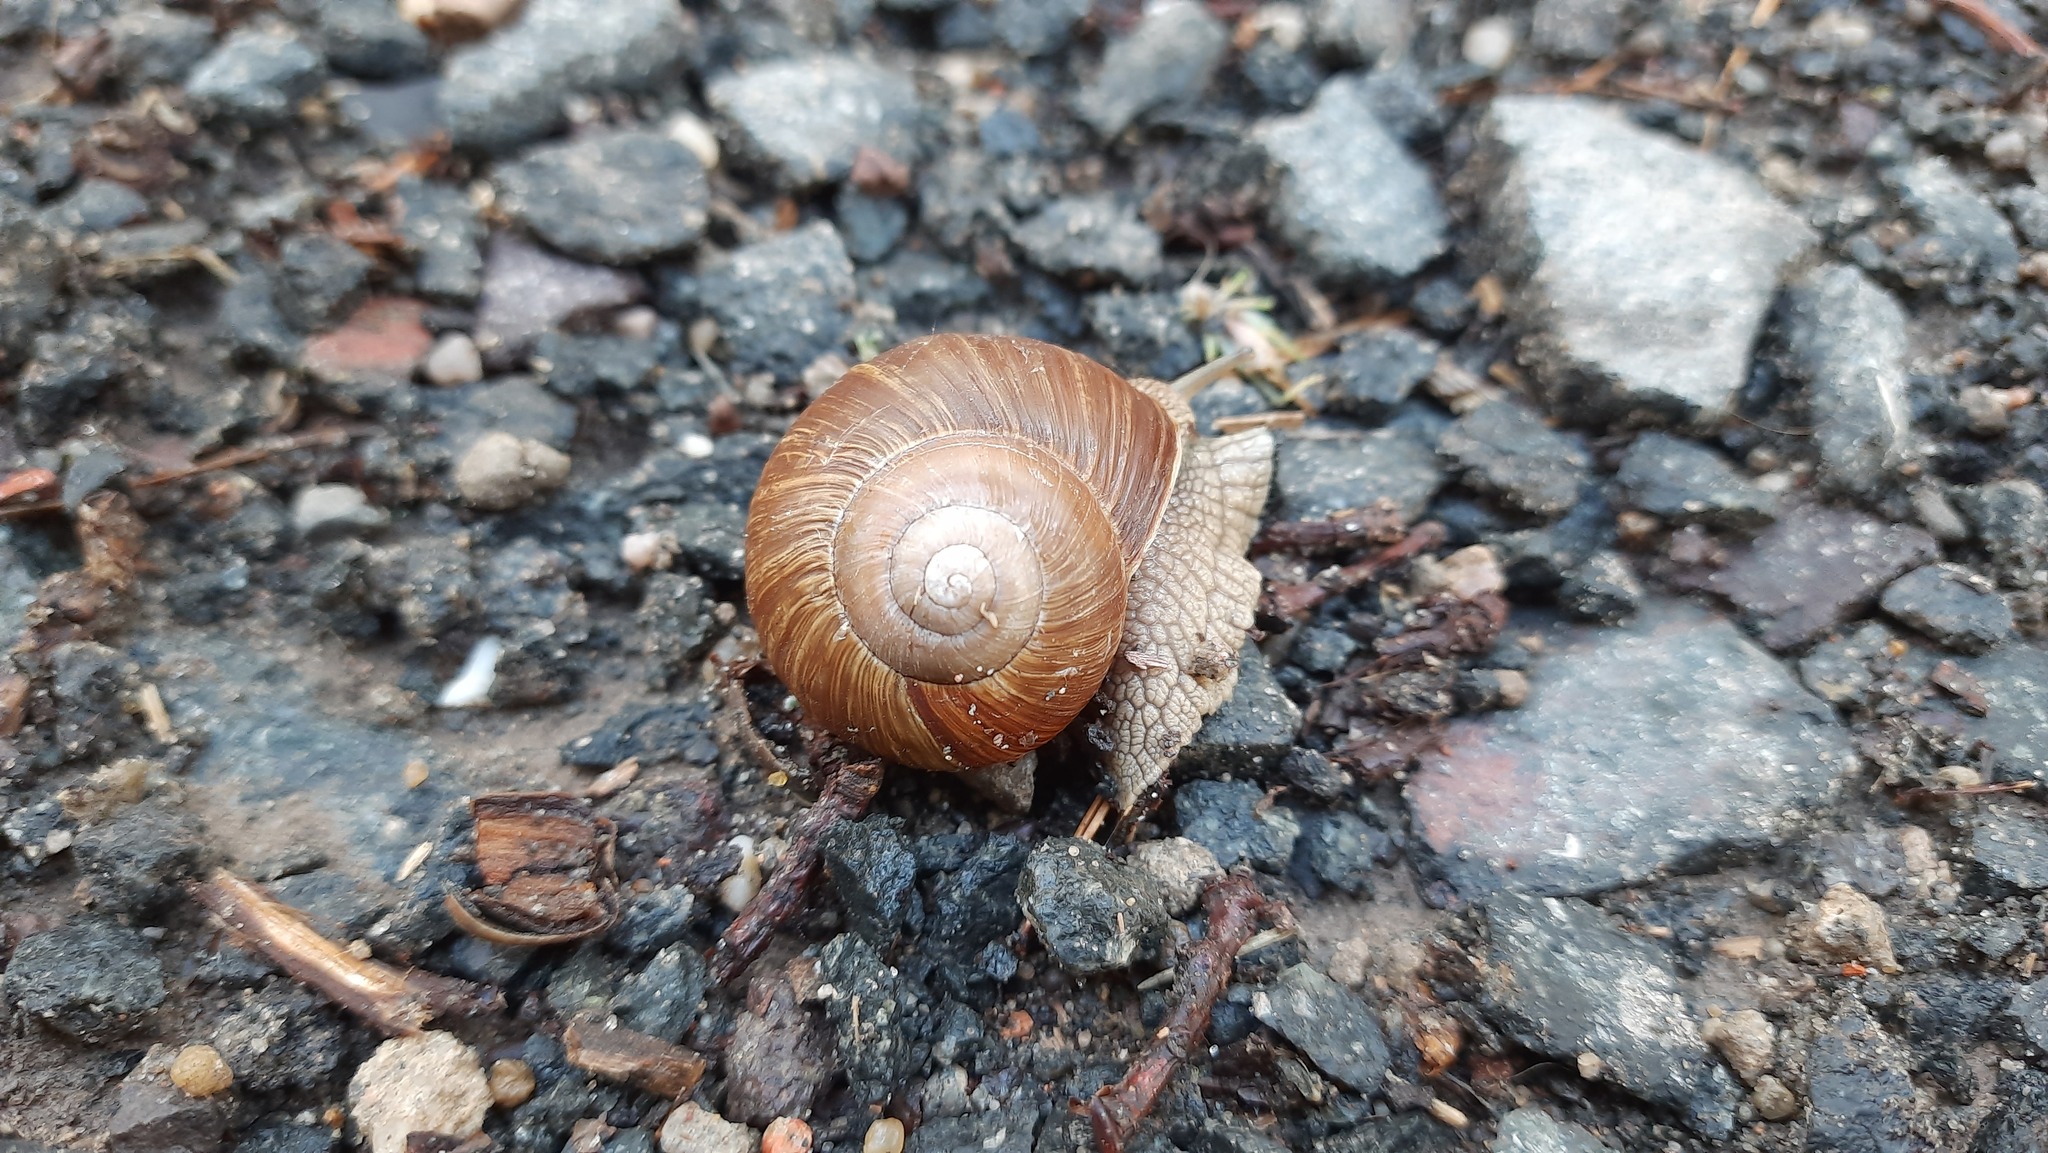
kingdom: Animalia
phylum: Mollusca
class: Gastropoda
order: Stylommatophora
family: Helicidae
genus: Helix
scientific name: Helix pomatia
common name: Roman snail
